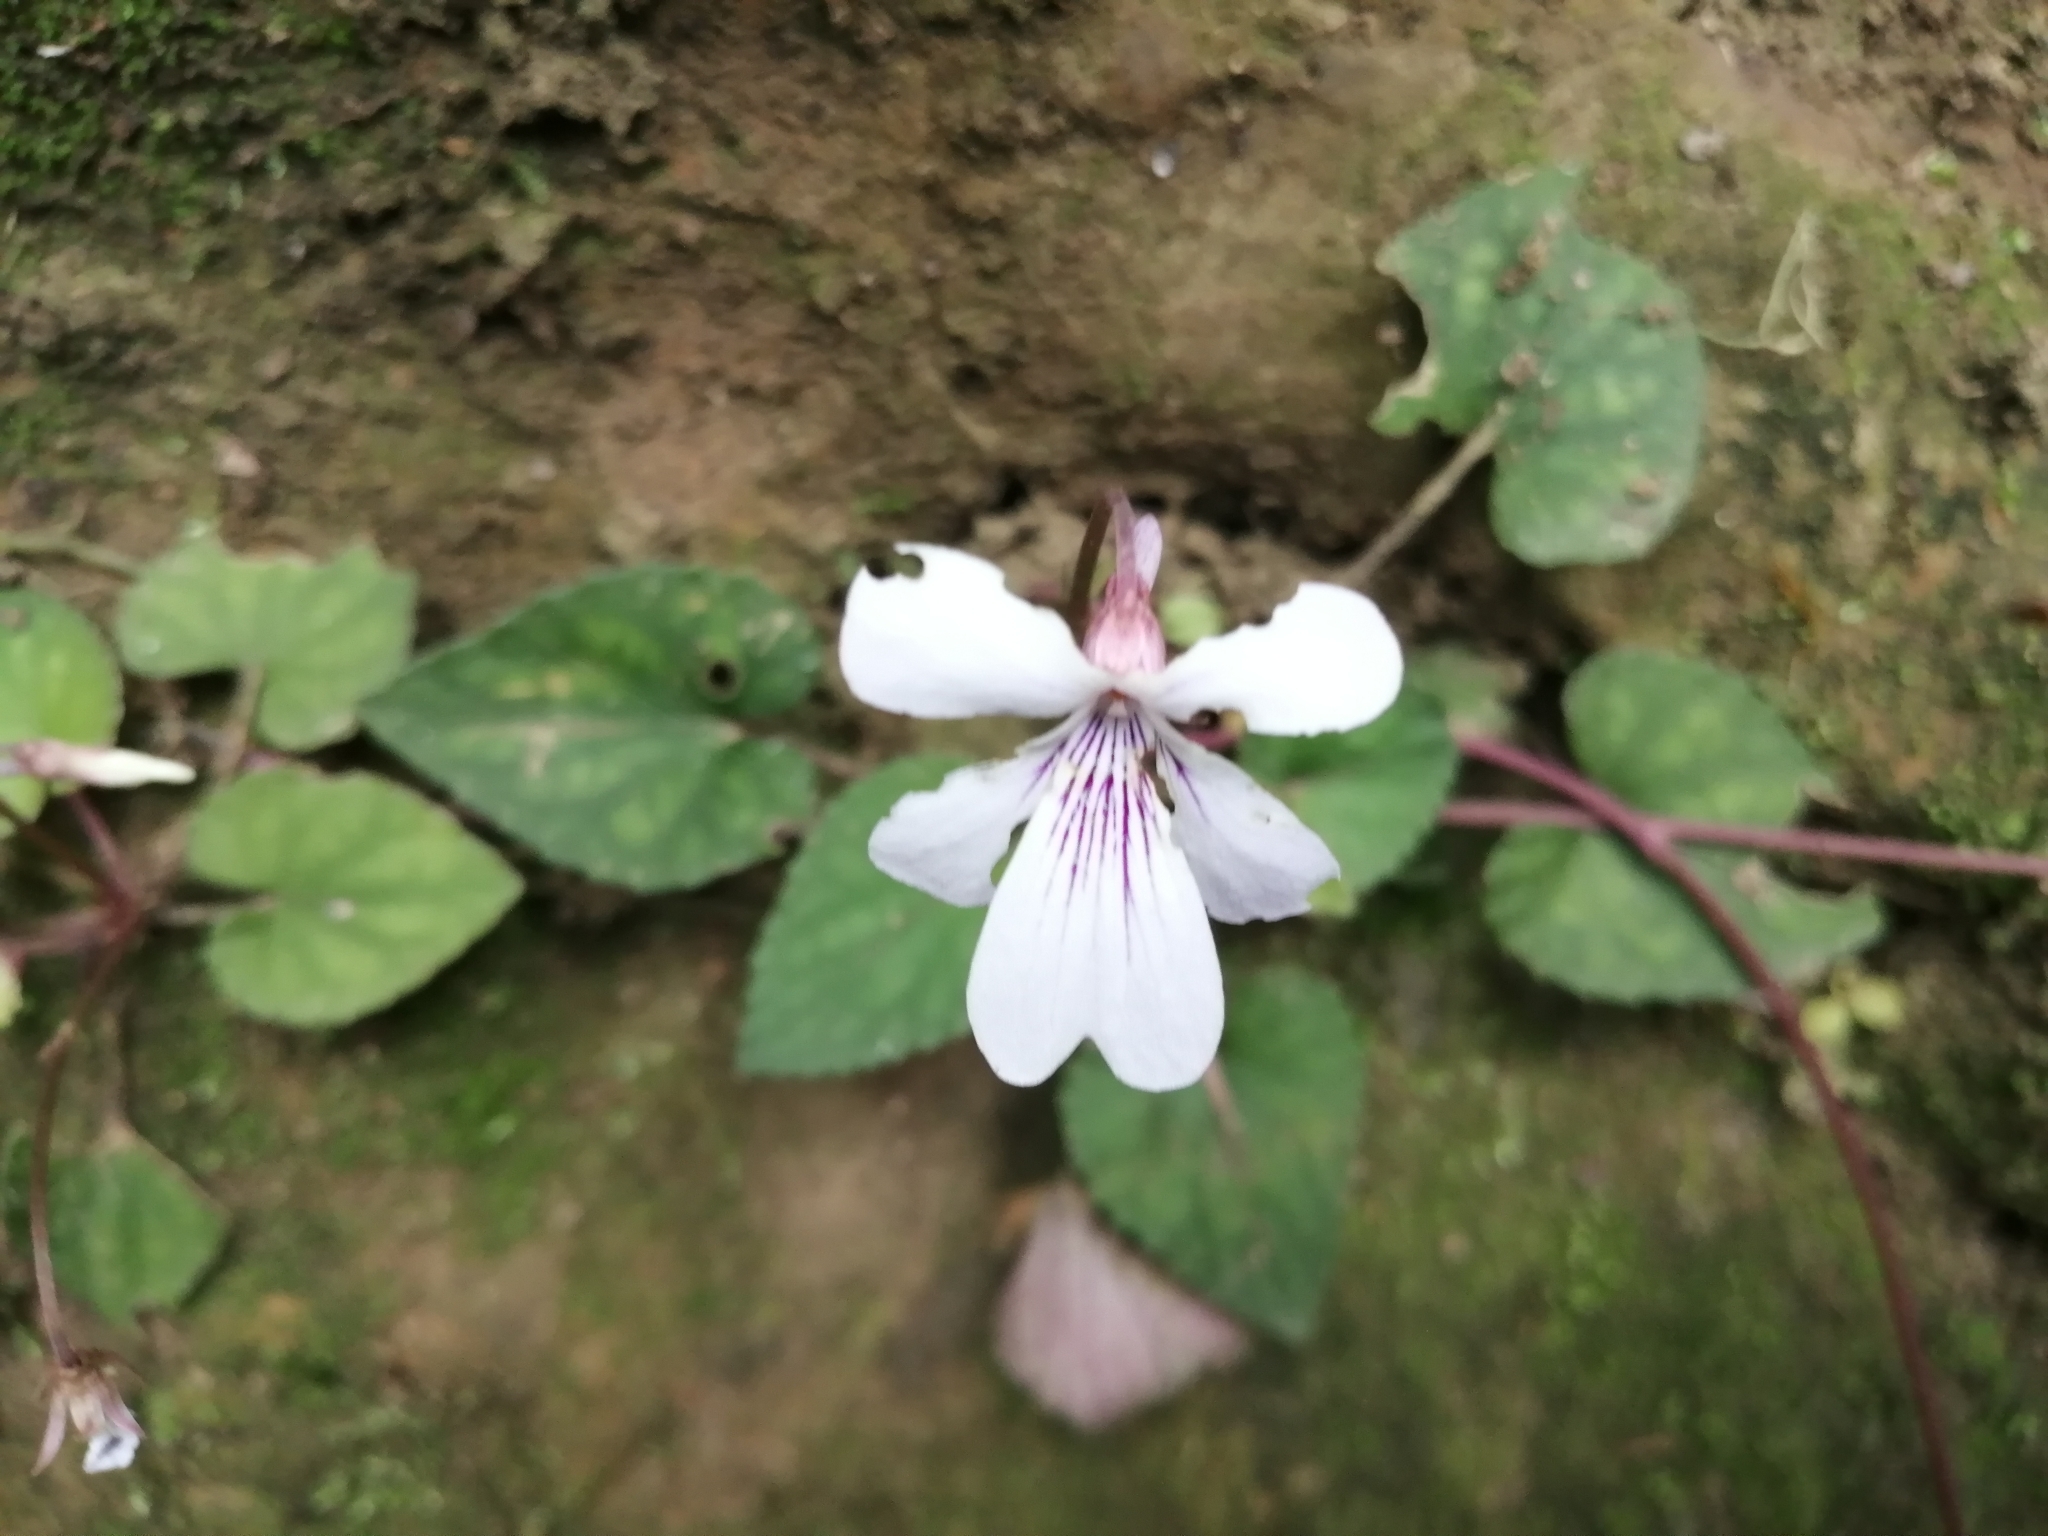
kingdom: Plantae
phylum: Tracheophyta
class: Magnoliopsida
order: Malpighiales
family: Violaceae
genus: Viola
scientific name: Viola formosana
